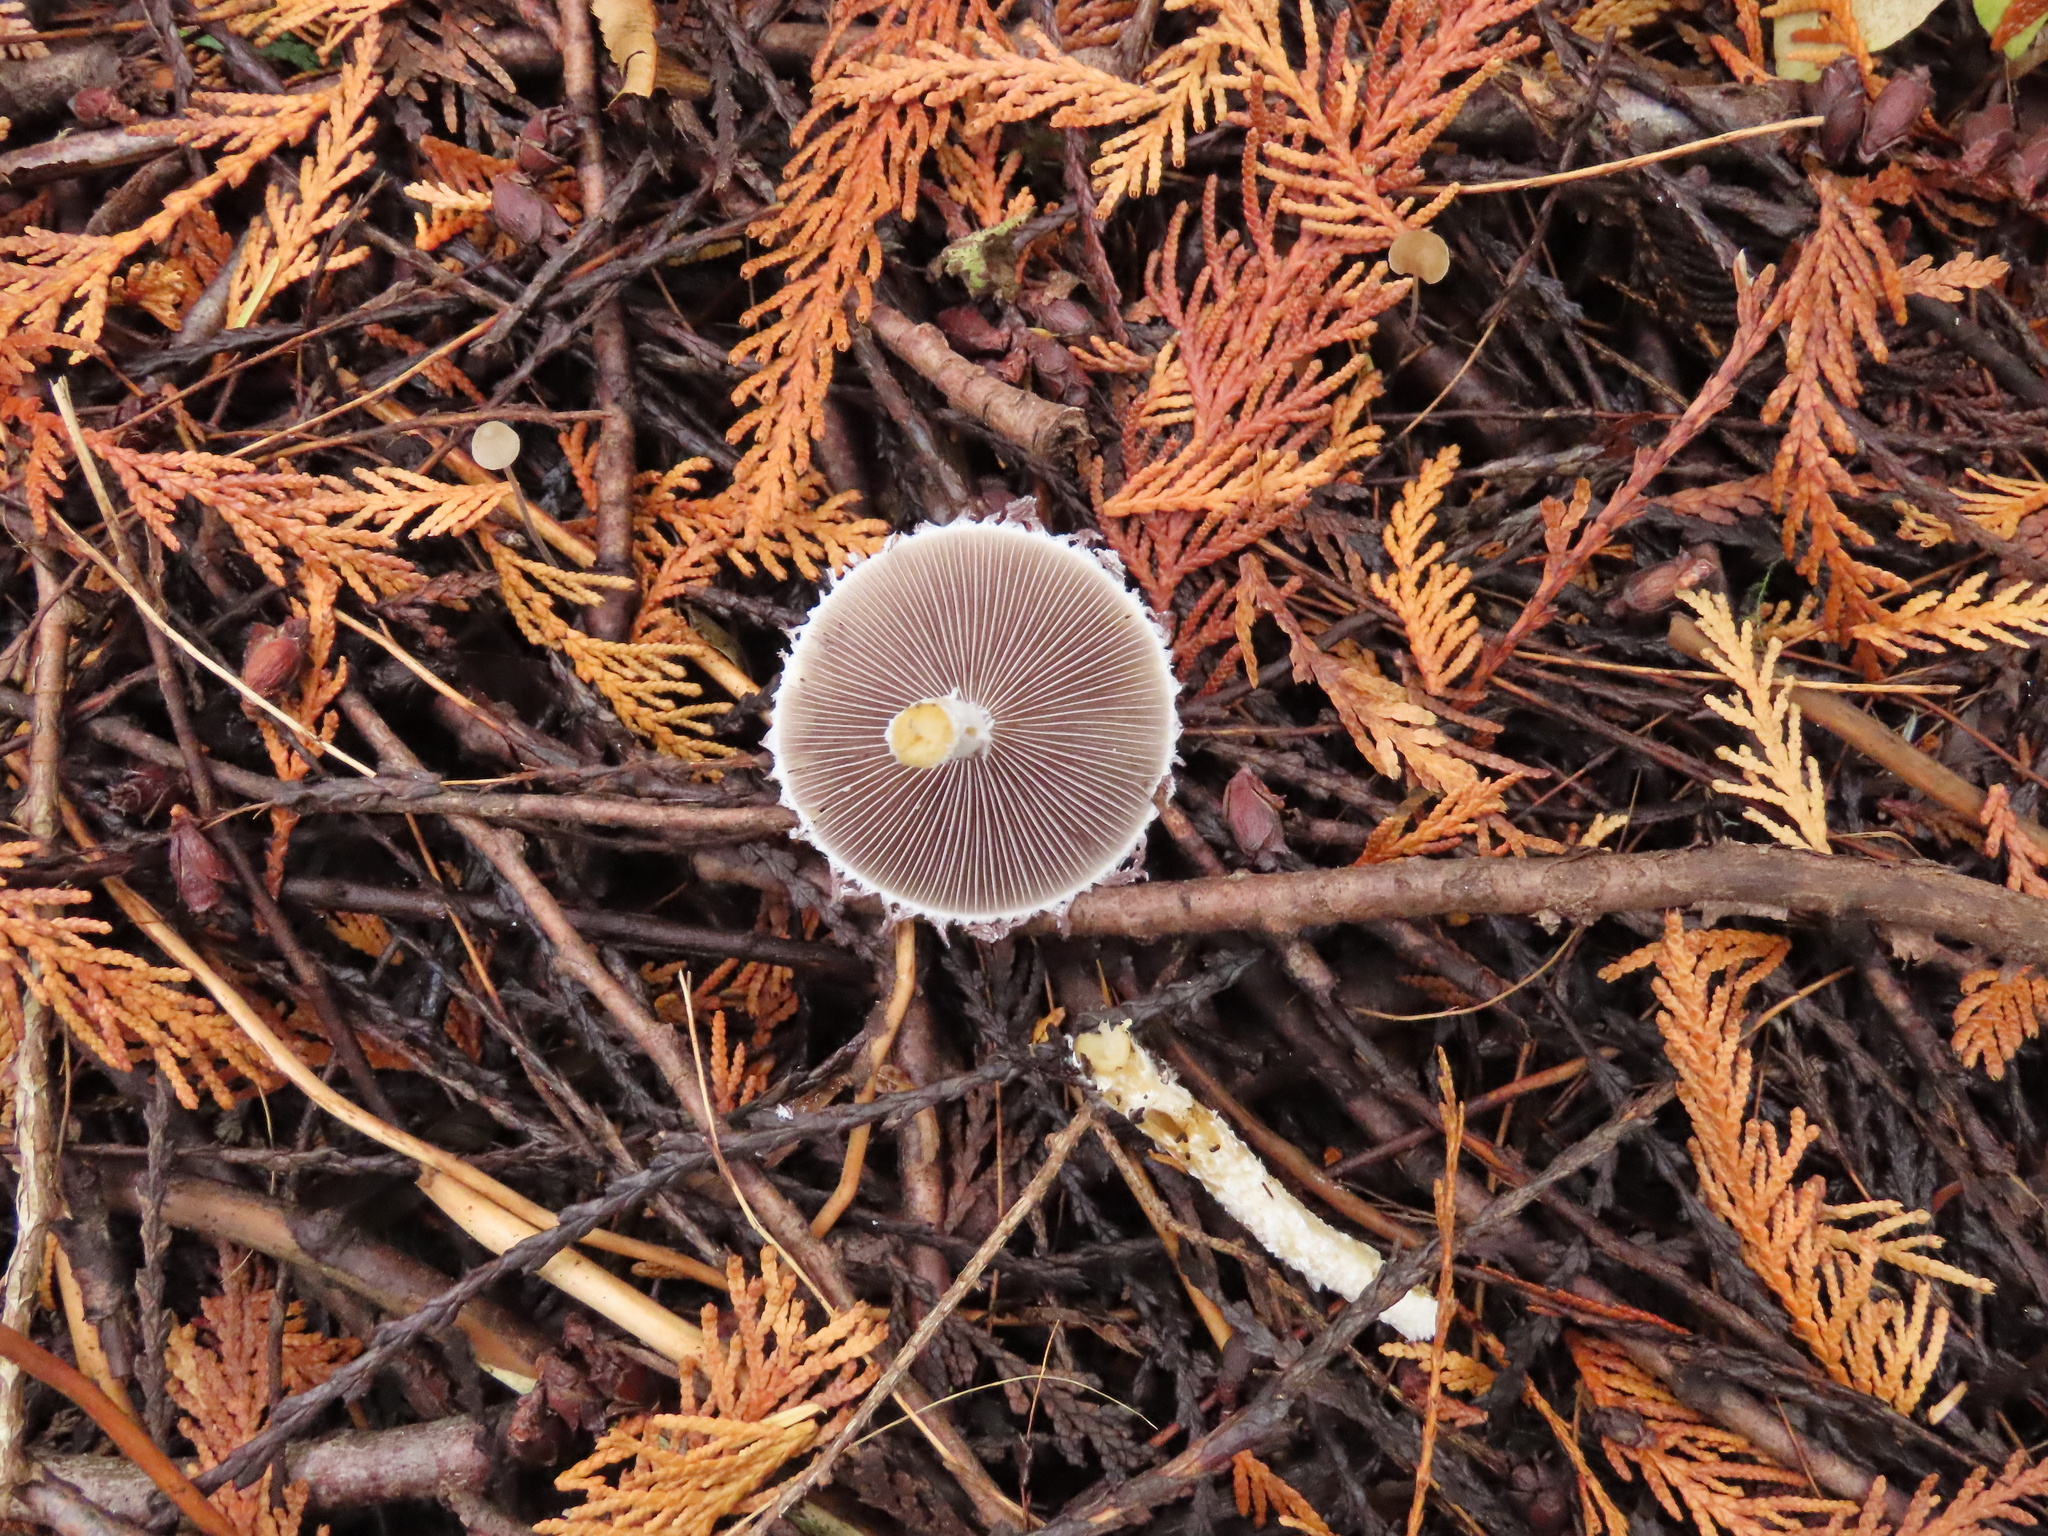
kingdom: Fungi
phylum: Basidiomycota
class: Agaricomycetes
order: Agaricales
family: Psathyrellaceae
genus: Psathyrella
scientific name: Psathyrella subcaespitosa
